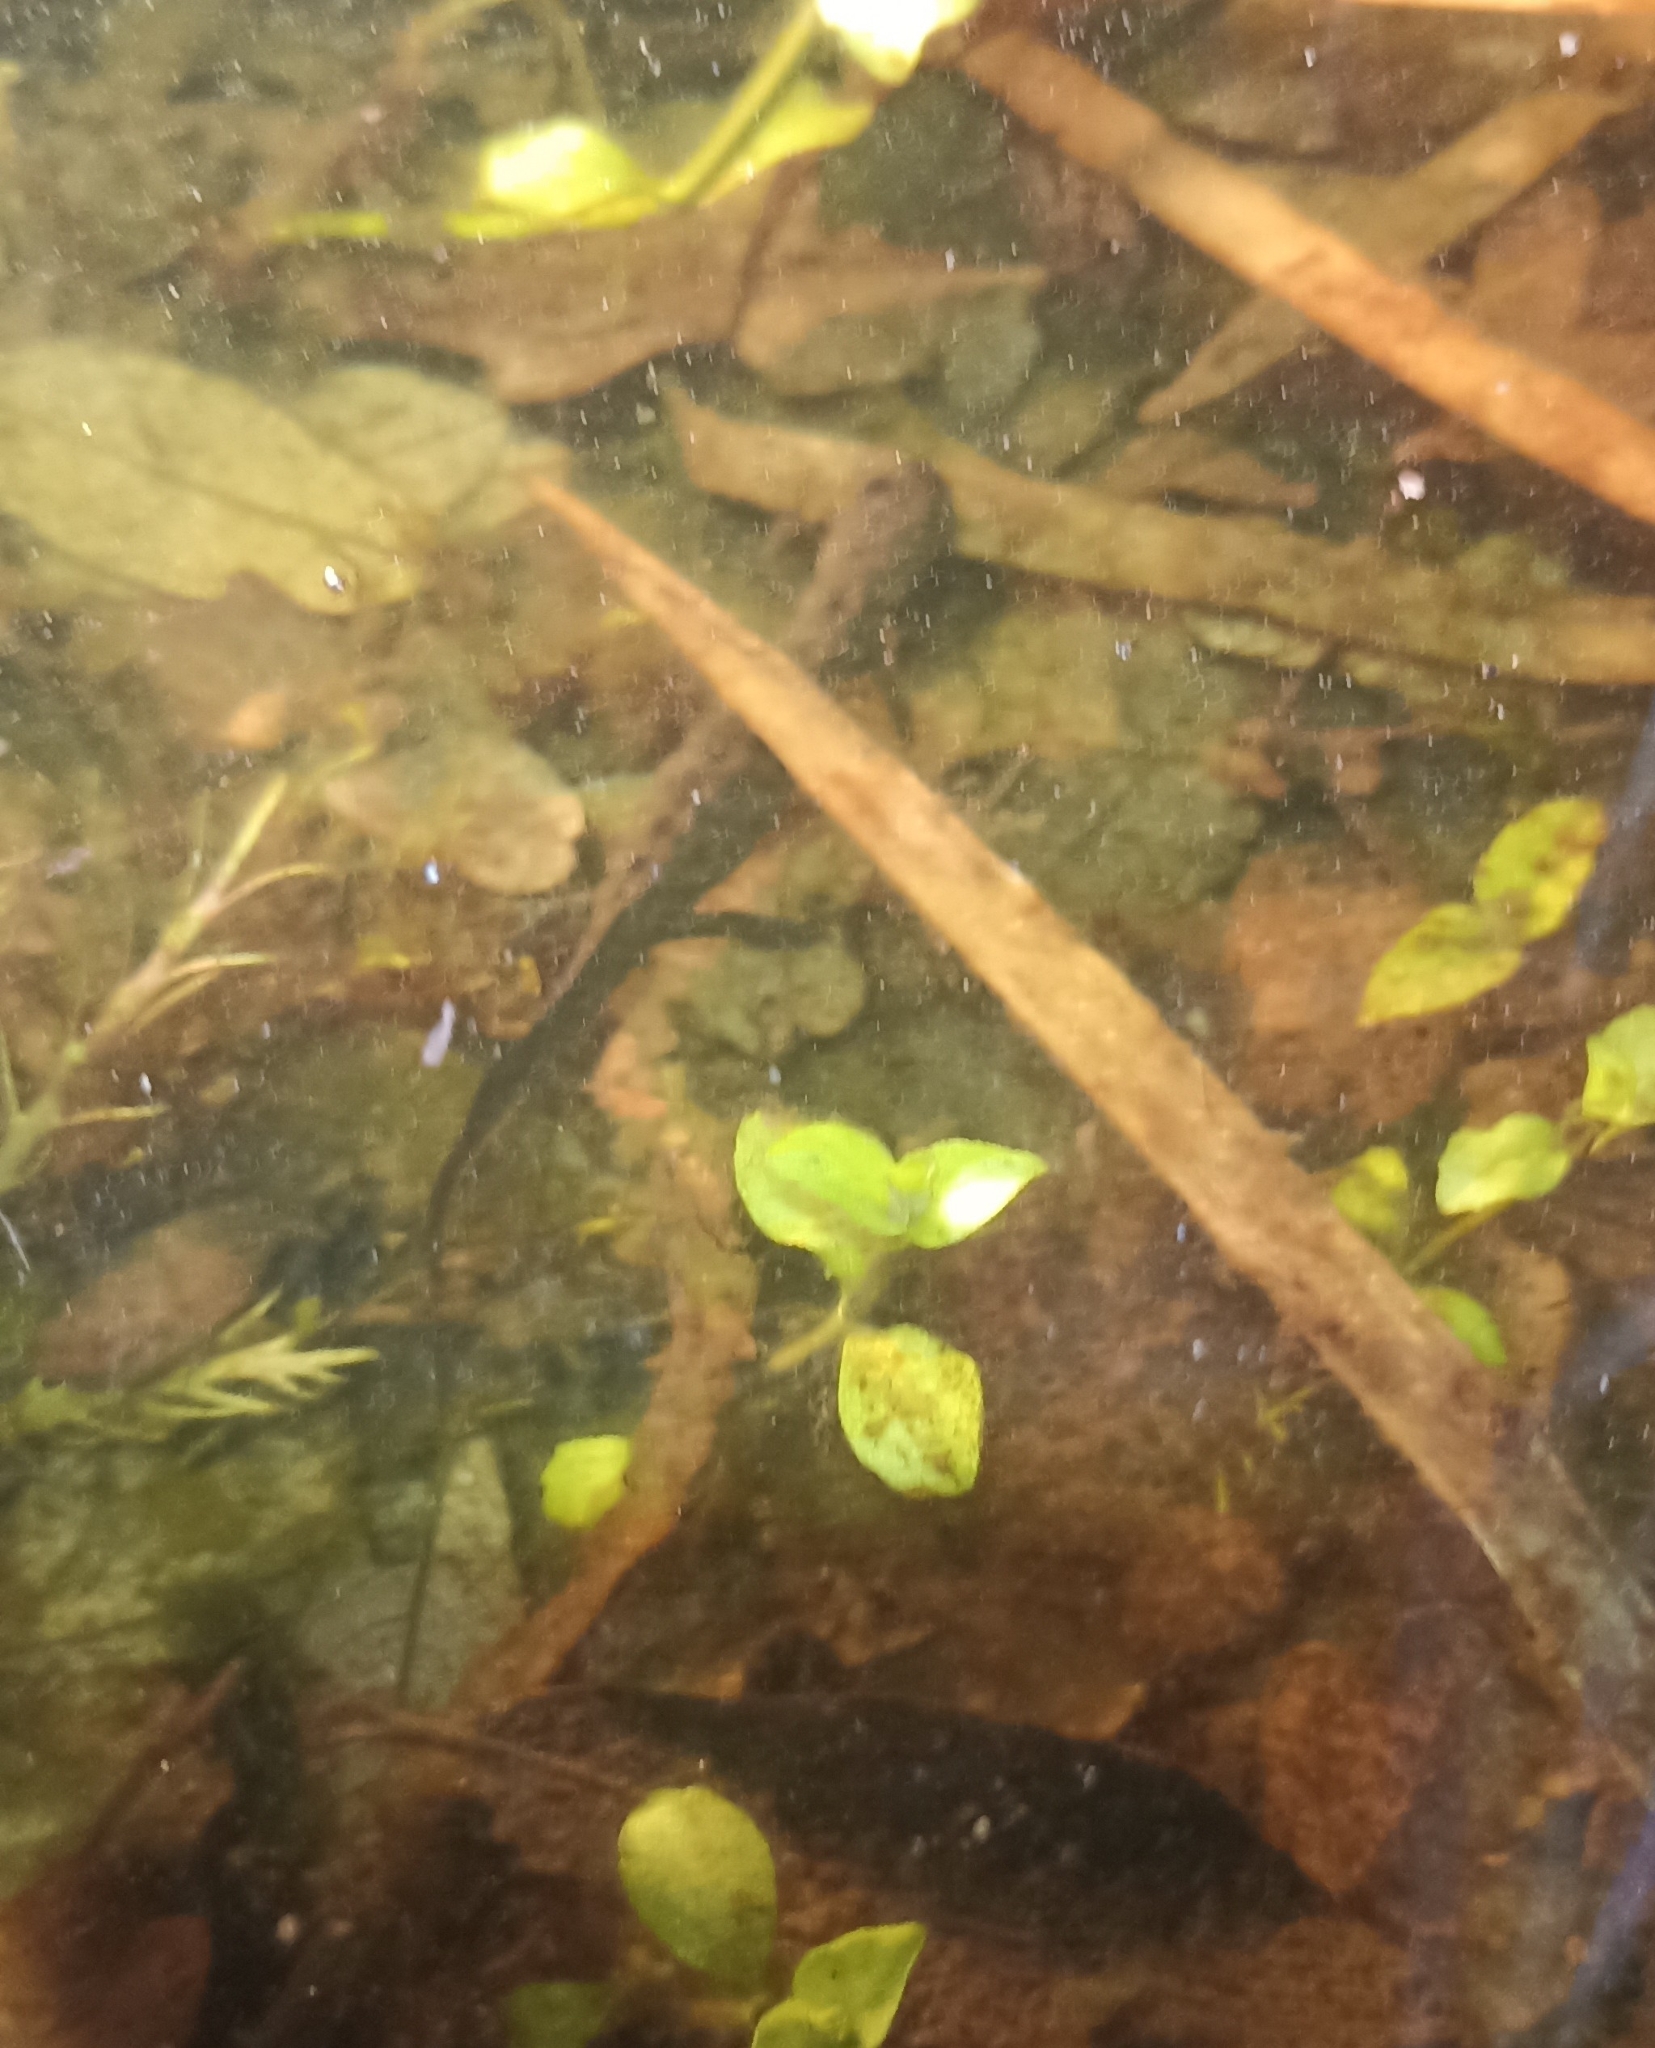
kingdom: Animalia
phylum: Chordata
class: Amphibia
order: Caudata
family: Salamandridae
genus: Triturus
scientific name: Triturus cristatus
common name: Crested newt
